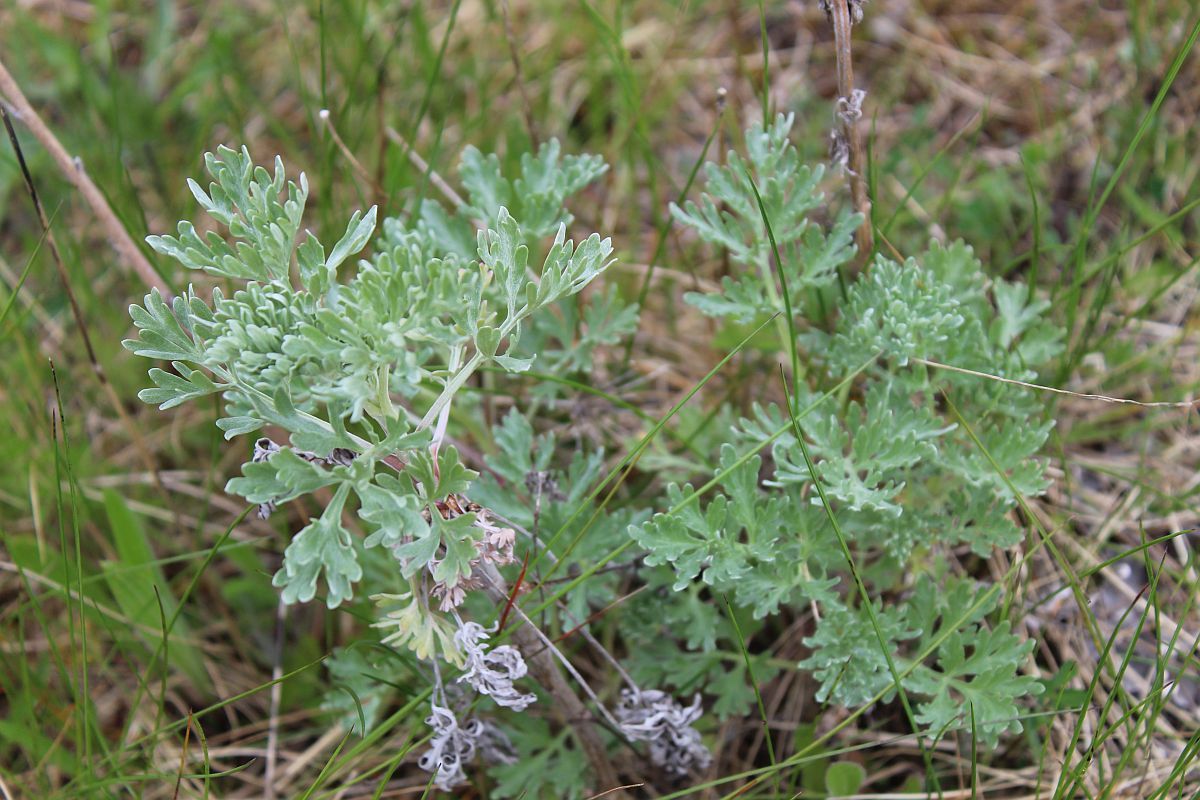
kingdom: Plantae
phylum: Tracheophyta
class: Magnoliopsida
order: Asterales
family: Asteraceae
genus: Artemisia
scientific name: Artemisia absinthium
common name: Wormwood
